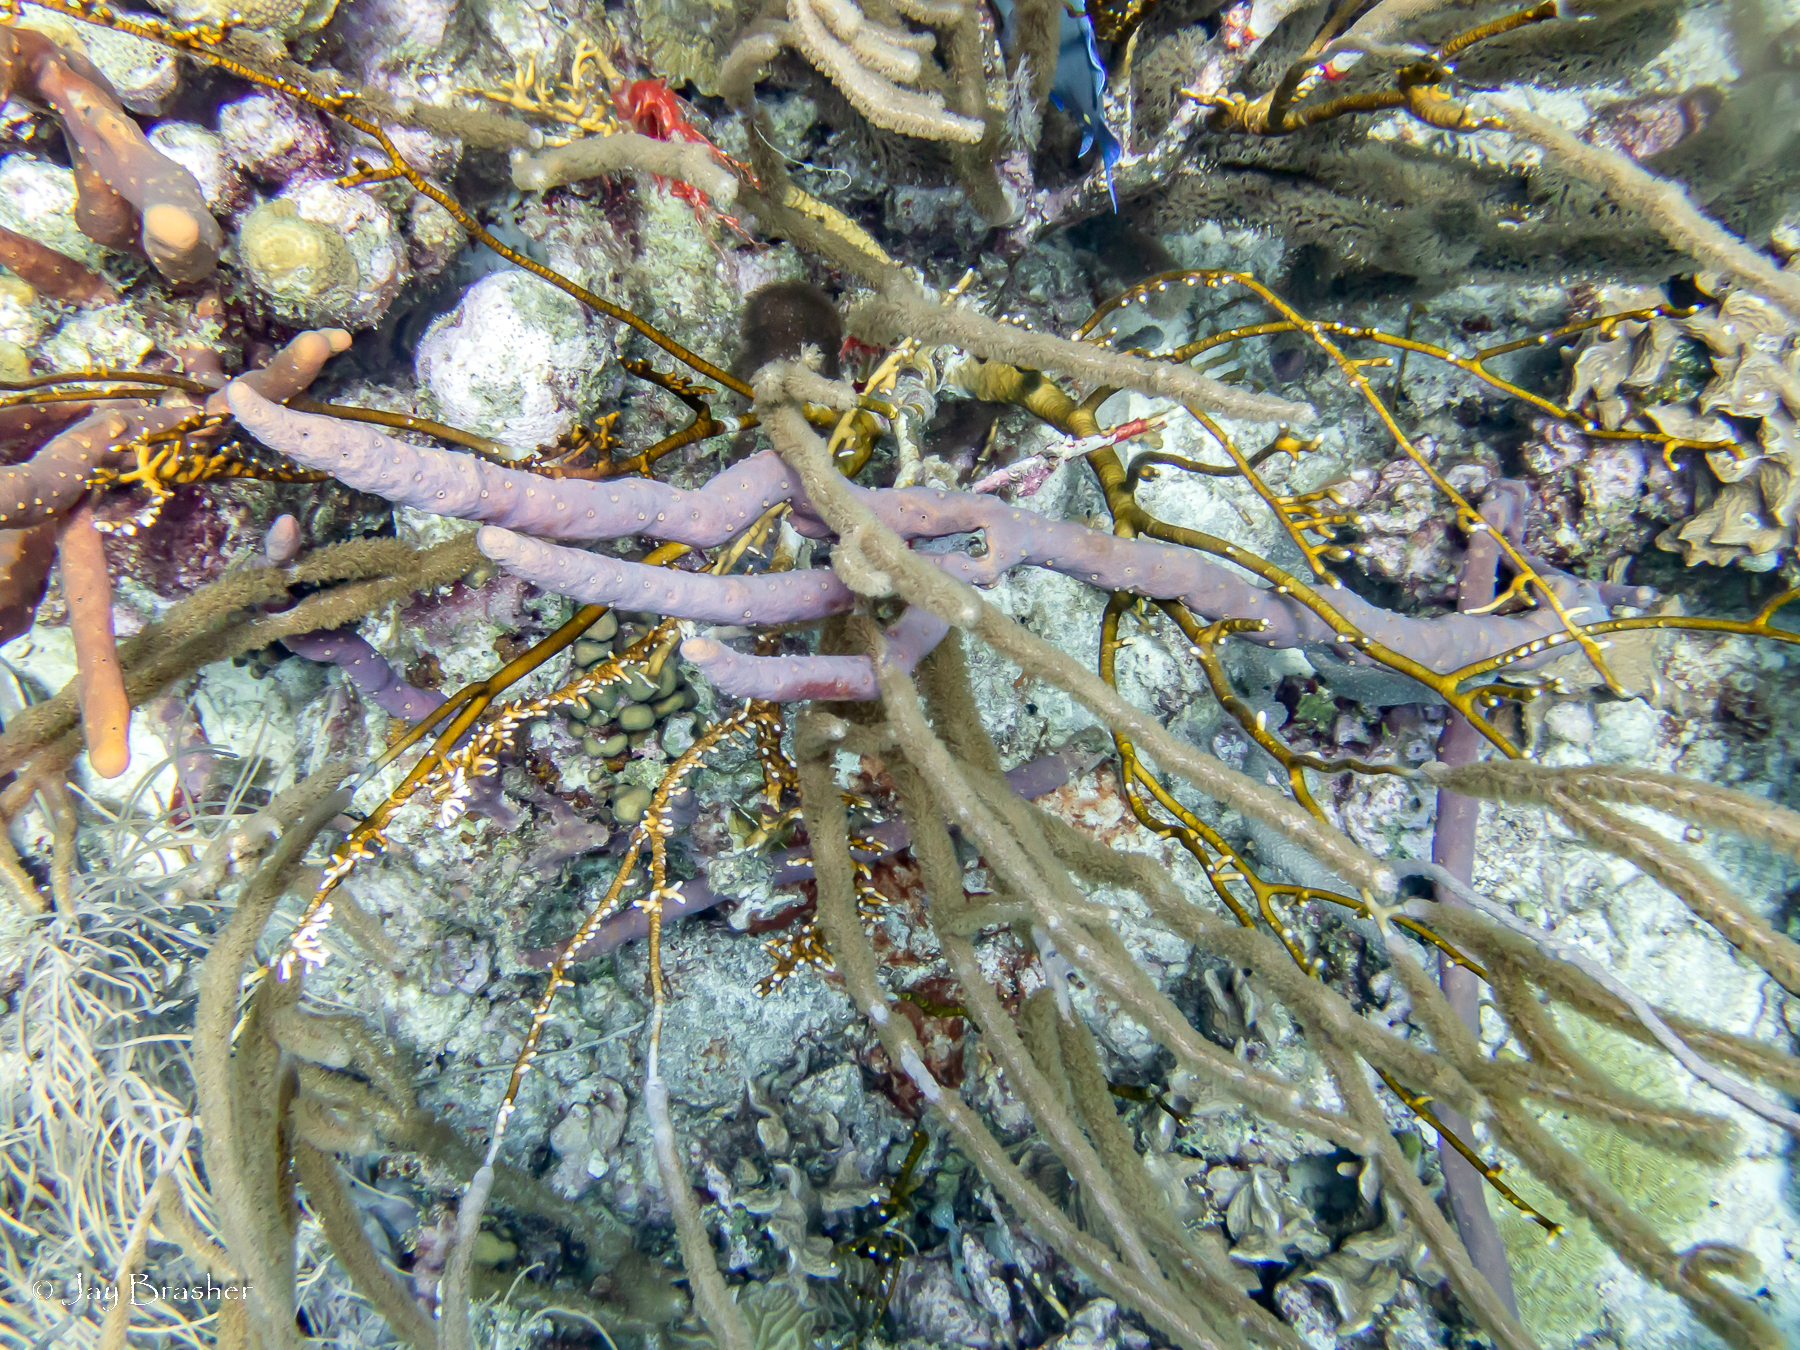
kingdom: Animalia
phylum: Porifera
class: Demospongiae
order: Verongiida
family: Aplysinidae
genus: Aplysina
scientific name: Aplysina cauliformis
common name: Branching candle sponge
